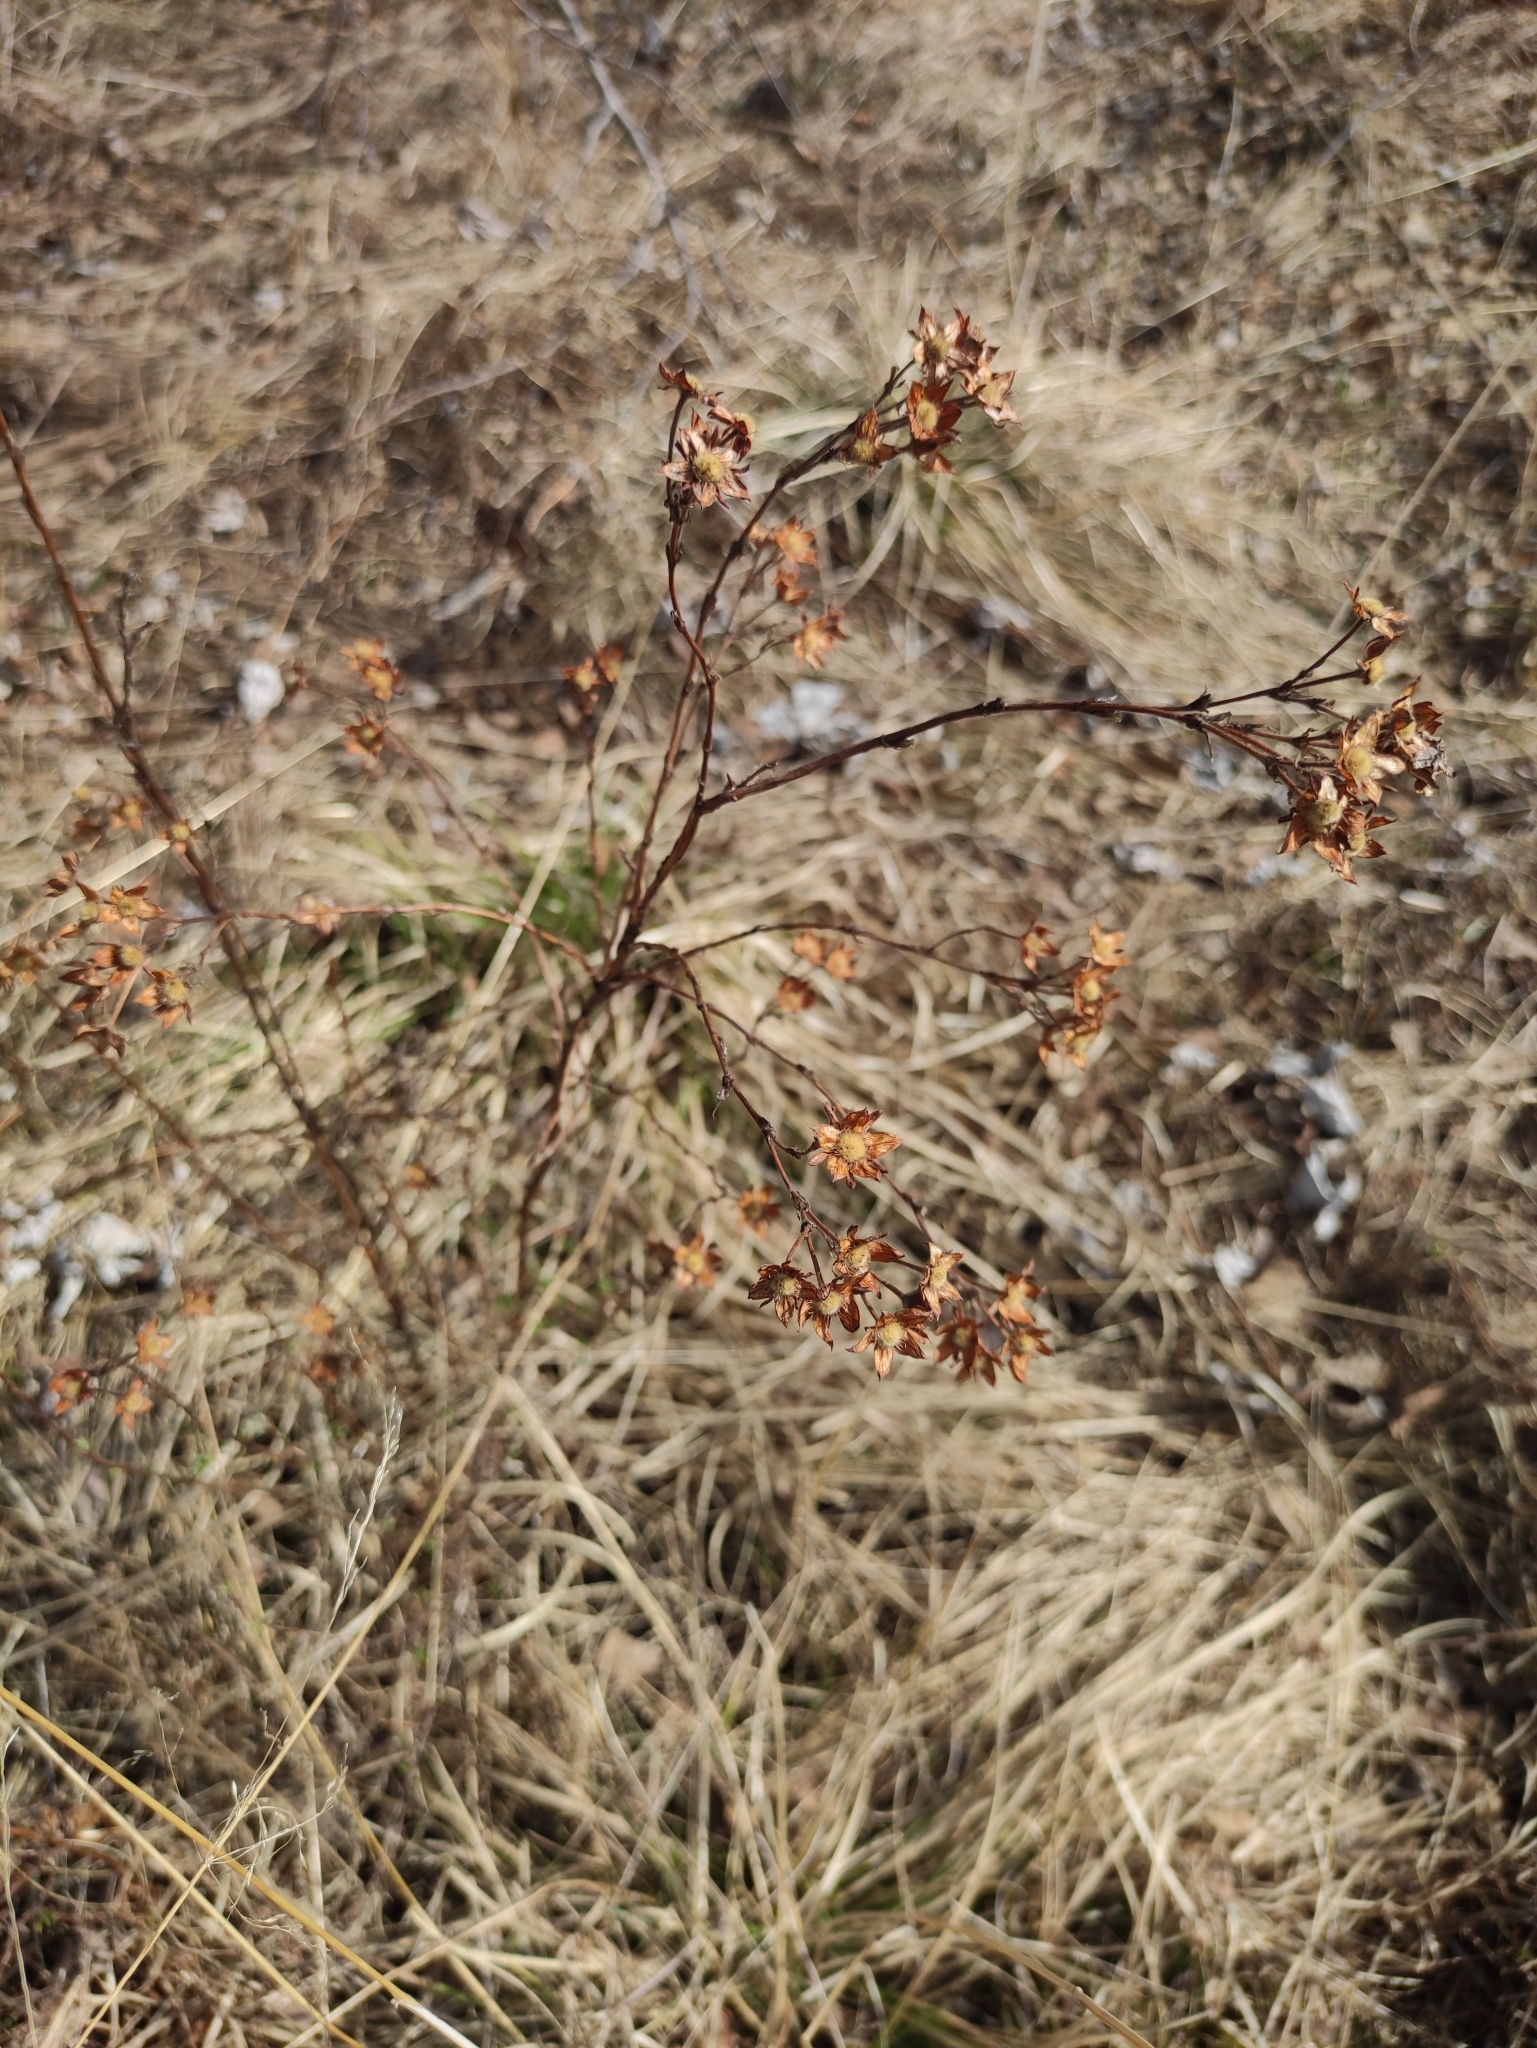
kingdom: Plantae
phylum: Tracheophyta
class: Magnoliopsida
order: Rosales
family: Rosaceae
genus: Dasiphora
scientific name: Dasiphora fruticosa
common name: Shrubby cinquefoil
